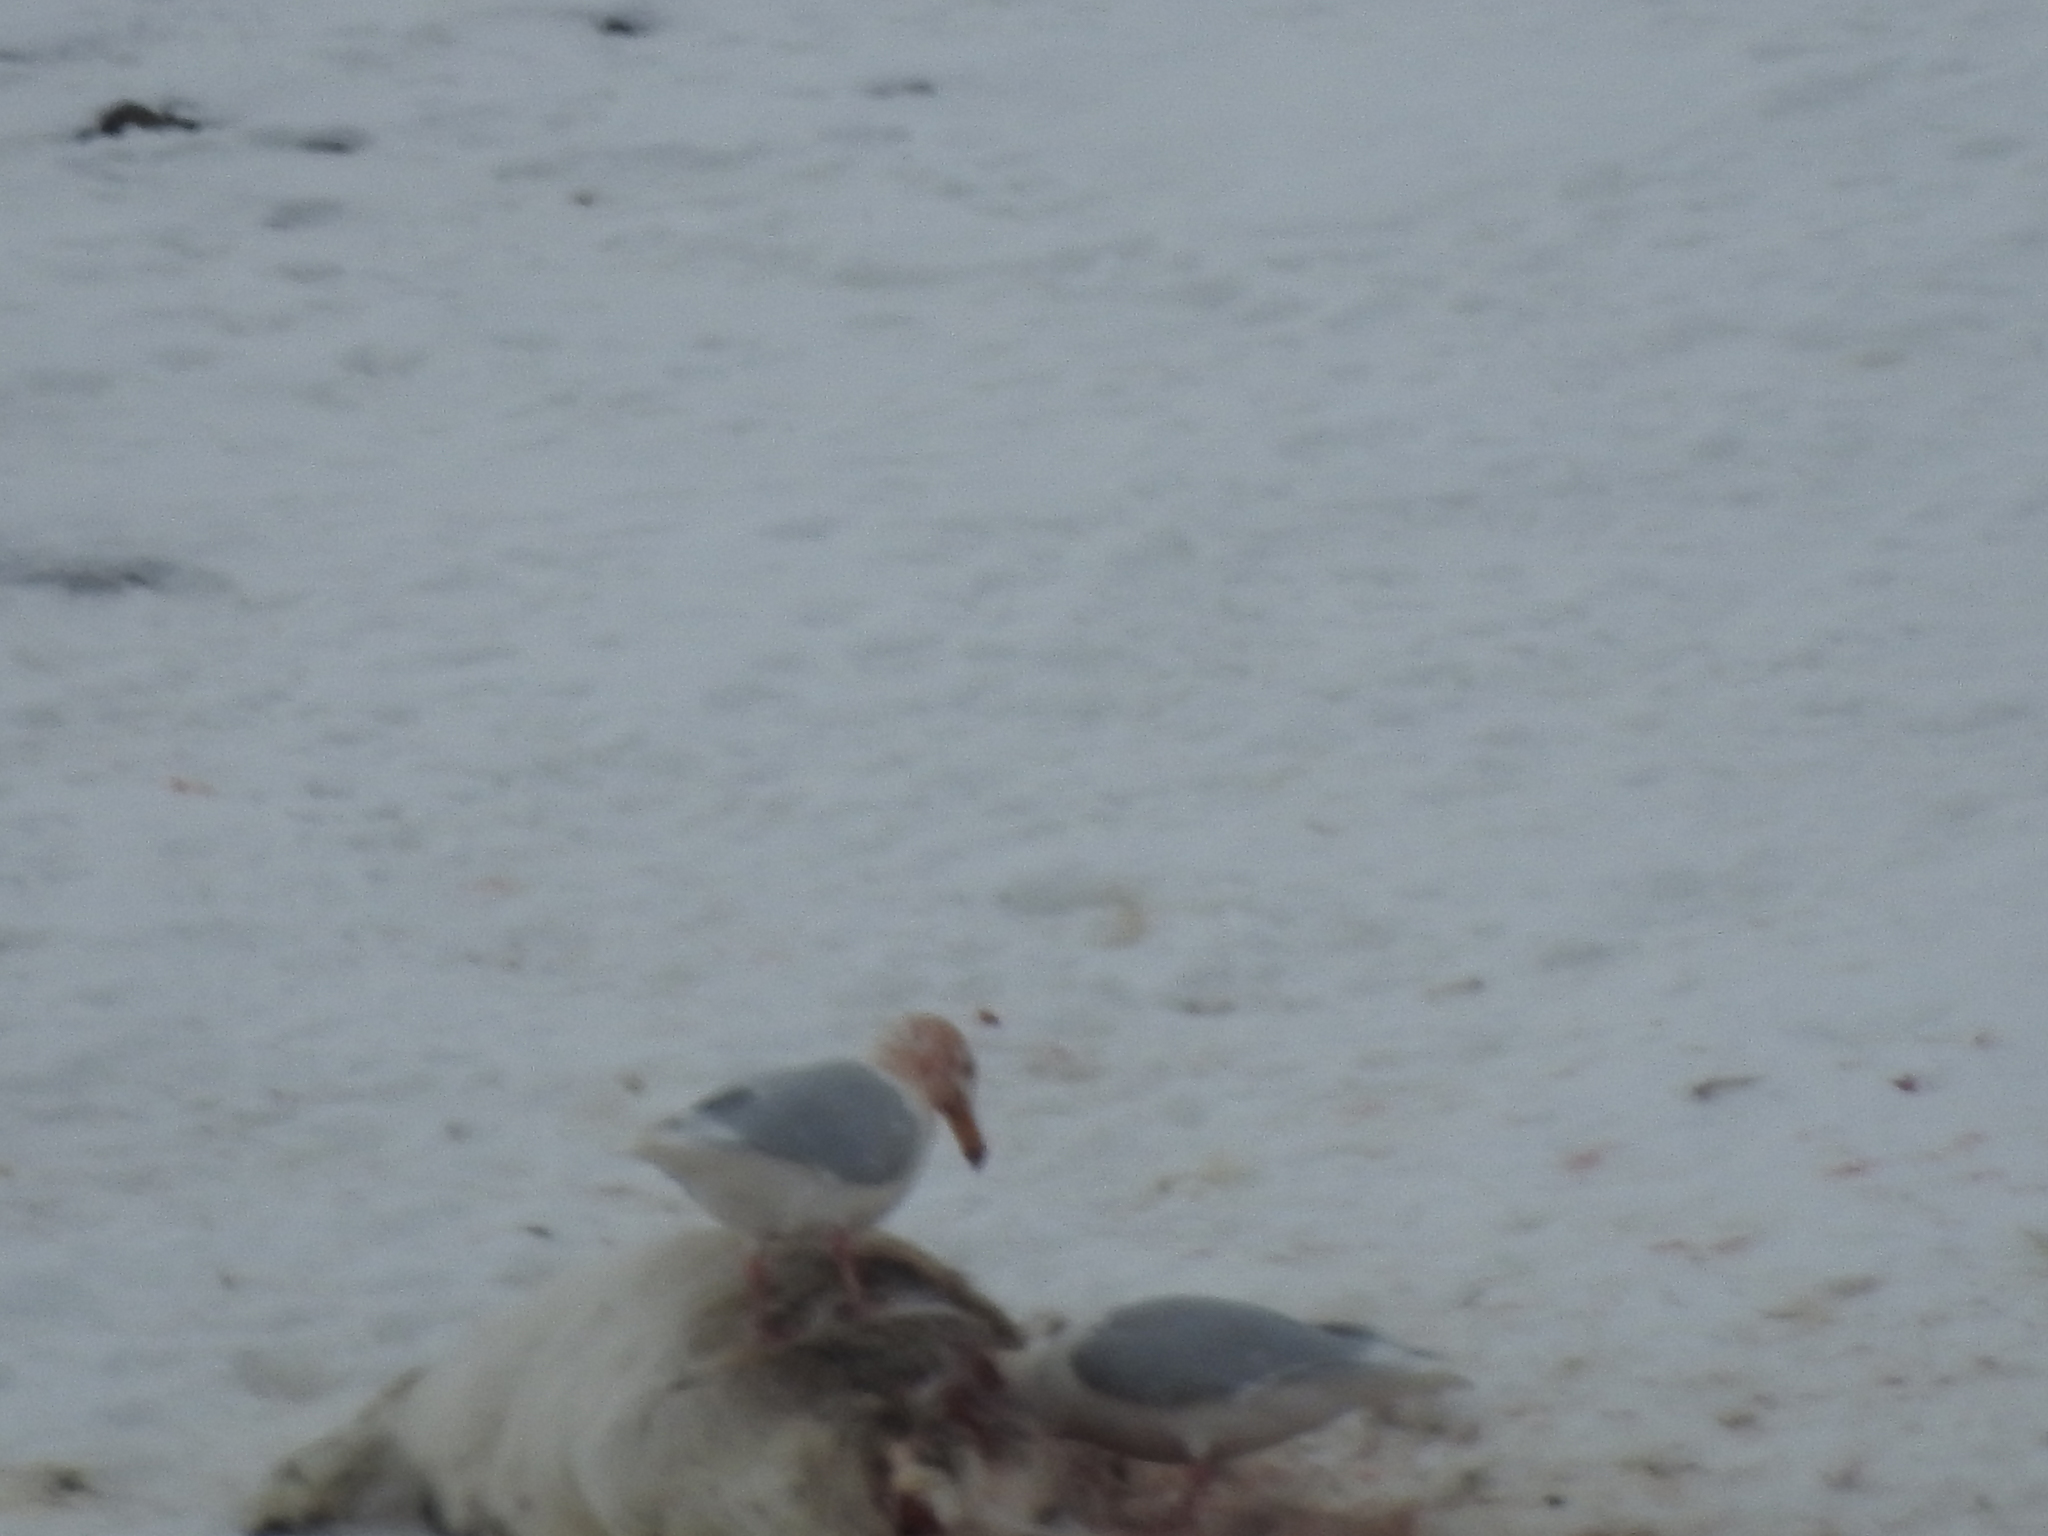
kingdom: Animalia
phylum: Chordata
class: Aves
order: Charadriiformes
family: Laridae
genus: Larus
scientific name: Larus hyperboreus
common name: Glaucous gull
